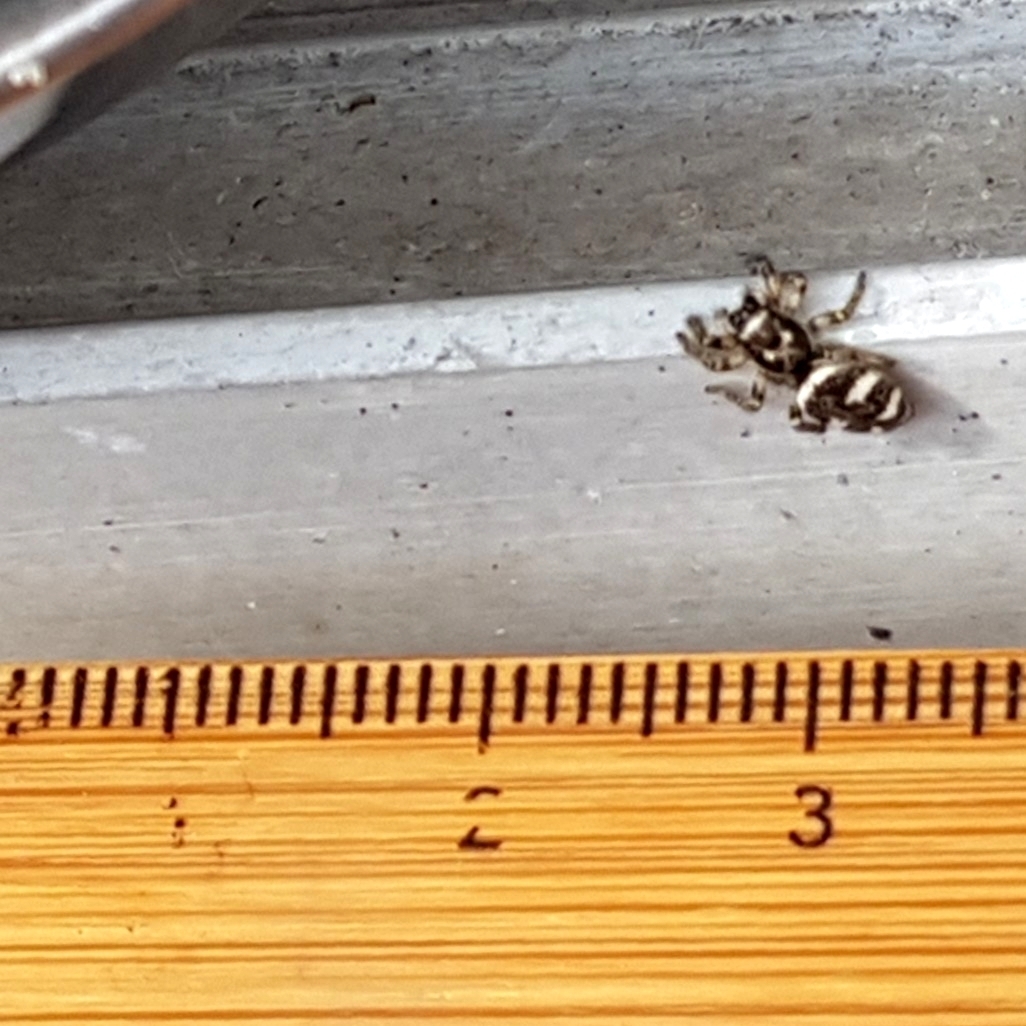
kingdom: Animalia
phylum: Arthropoda
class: Arachnida
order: Araneae
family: Salticidae
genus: Salticus
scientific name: Salticus scenicus
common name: Zebra jumper
